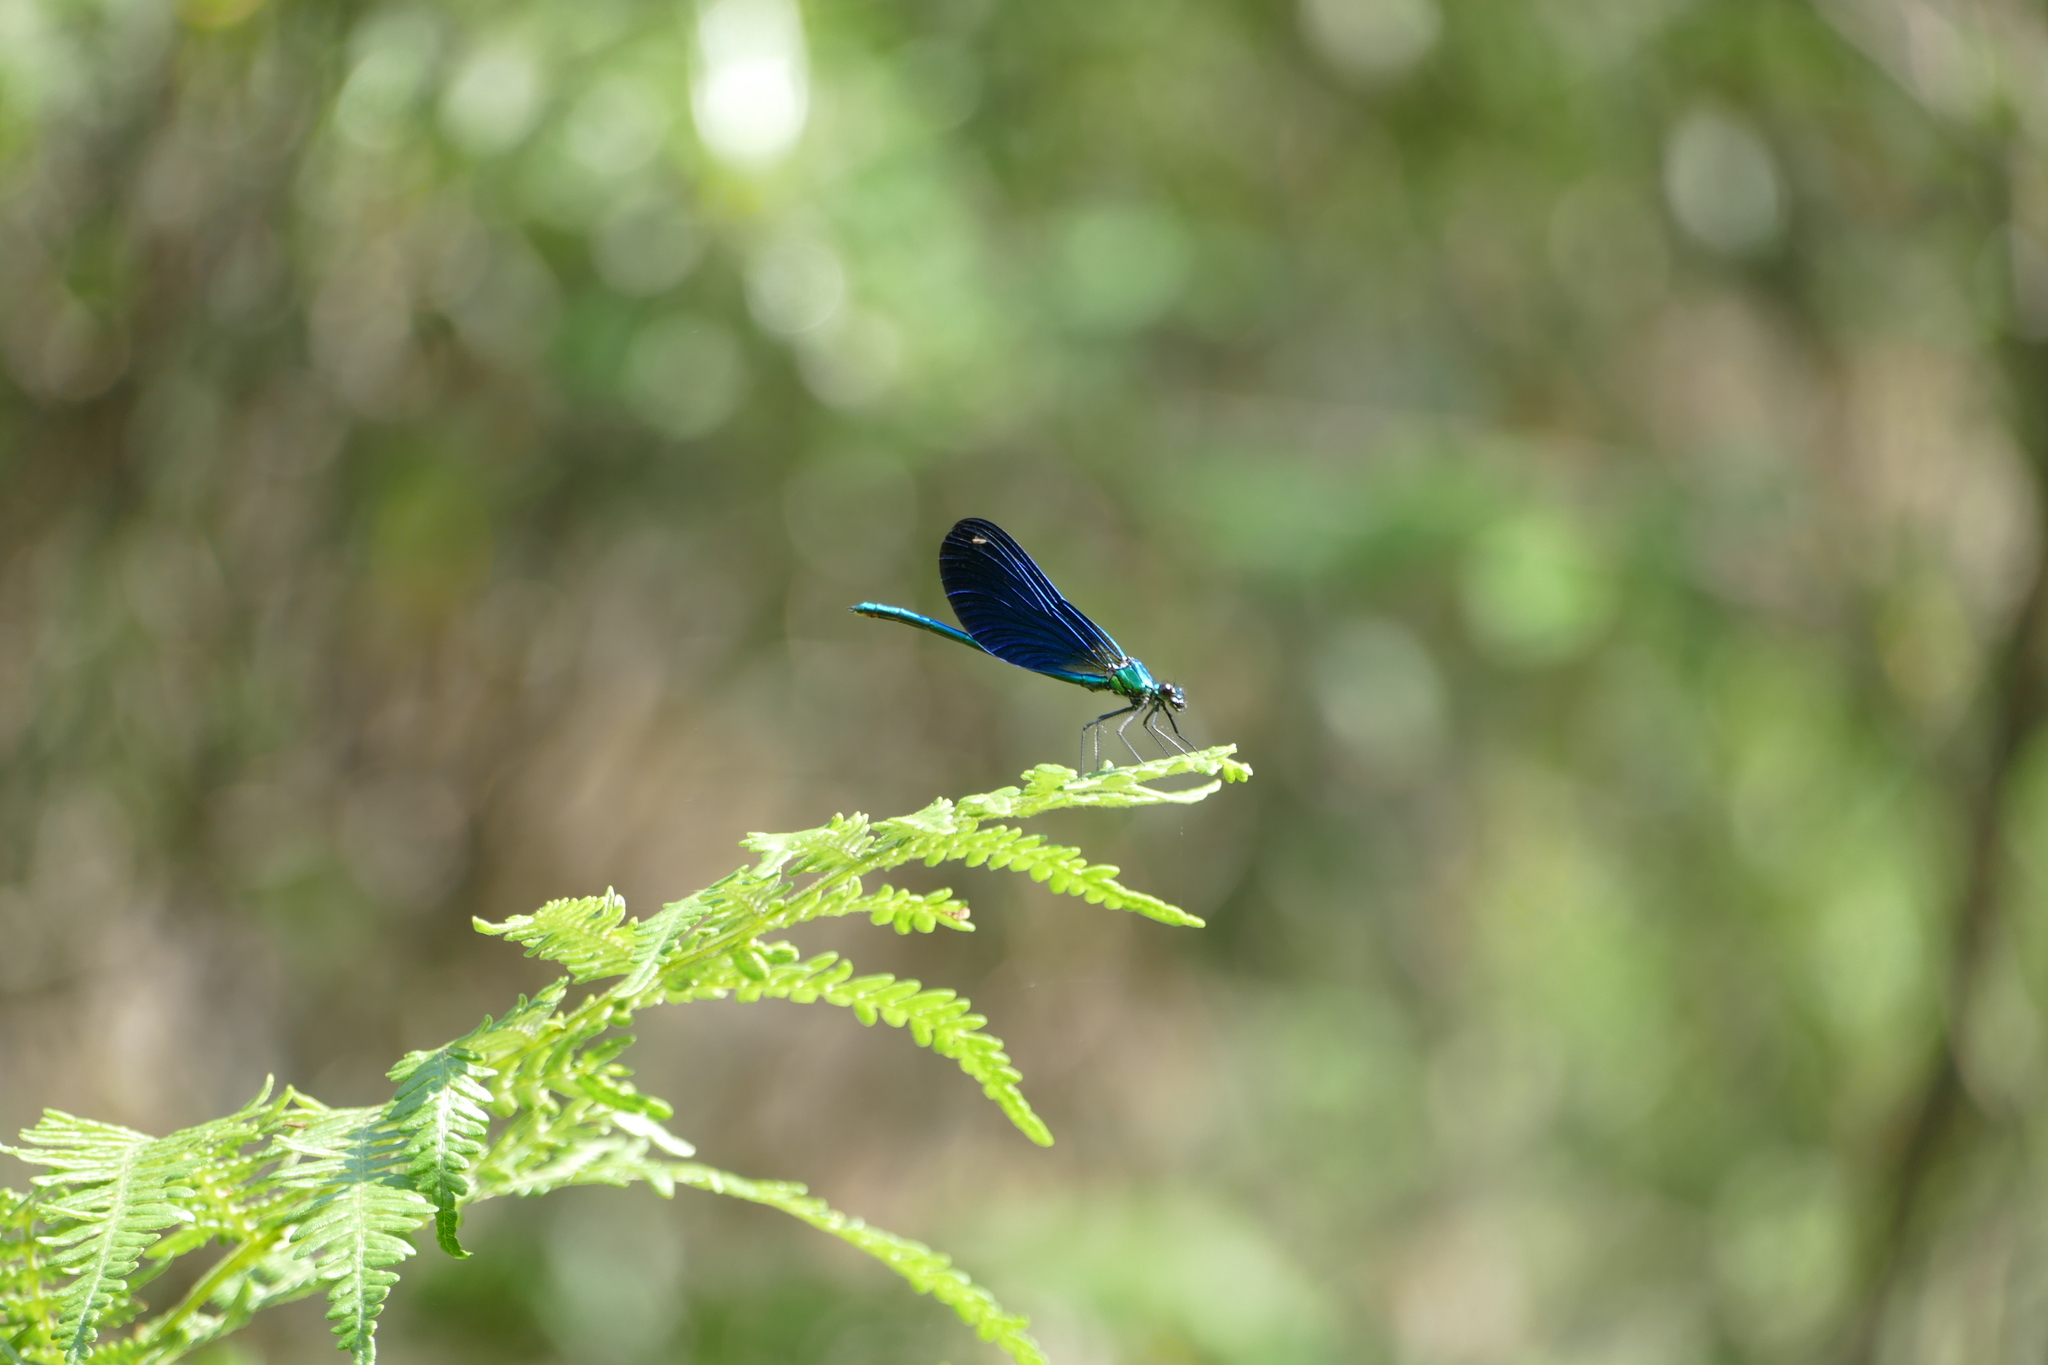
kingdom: Animalia
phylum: Arthropoda
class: Insecta
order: Odonata
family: Calopterygidae
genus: Calopteryx
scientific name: Calopteryx virgo
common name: Beautiful demoiselle
